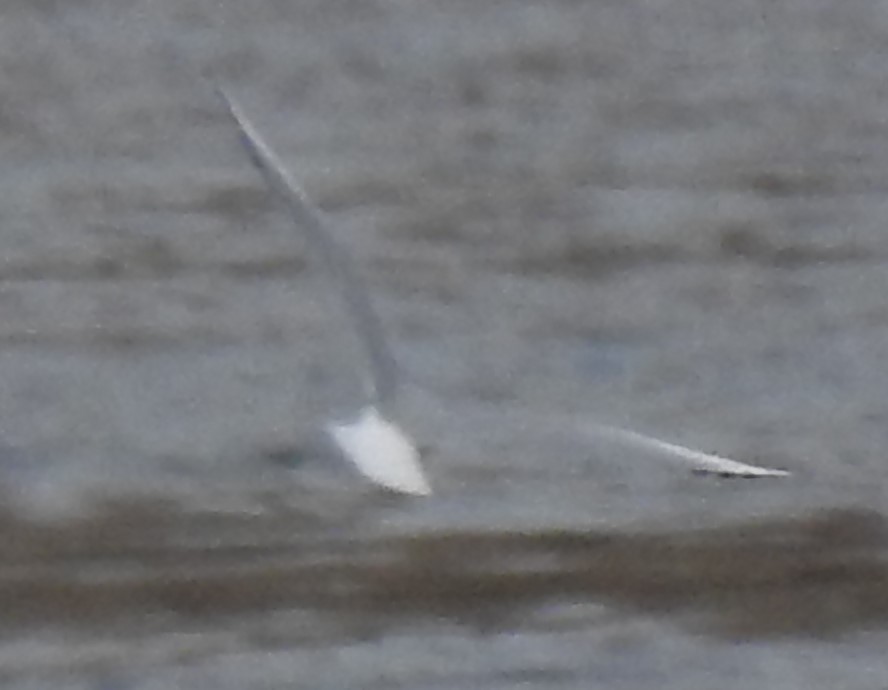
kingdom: Animalia
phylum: Chordata
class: Aves
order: Charadriiformes
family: Laridae
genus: Chroicocephalus
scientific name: Chroicocephalus philadelphia
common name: Bonaparte's gull
